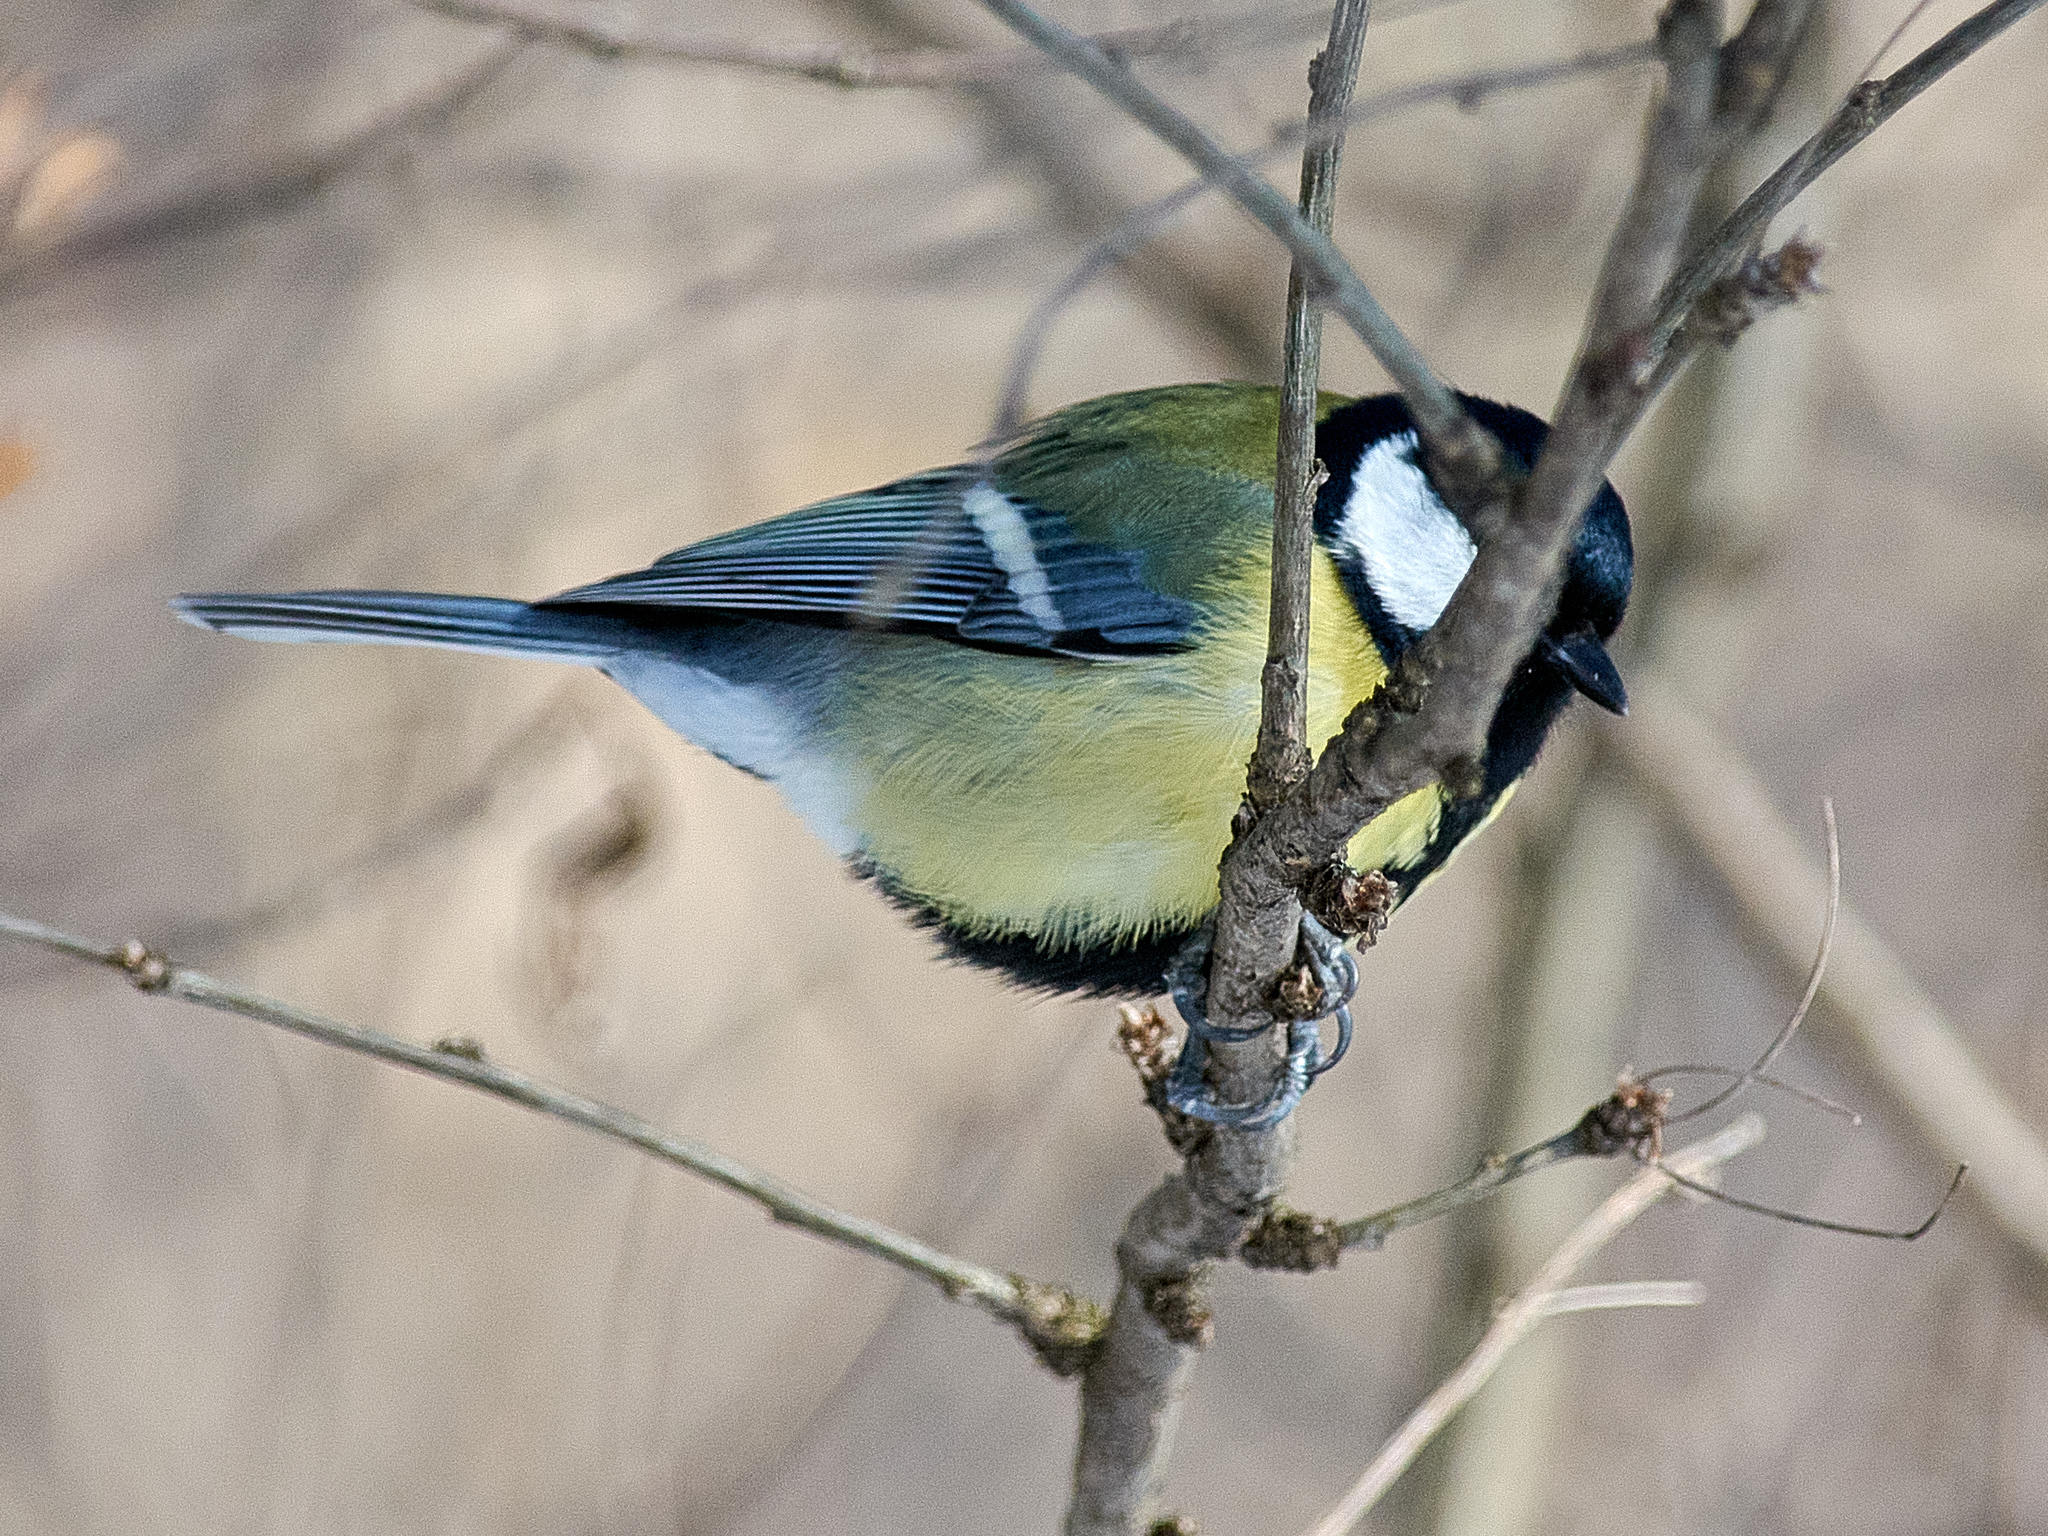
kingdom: Animalia
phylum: Chordata
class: Aves
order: Passeriformes
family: Paridae
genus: Parus
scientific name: Parus major
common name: Great tit
